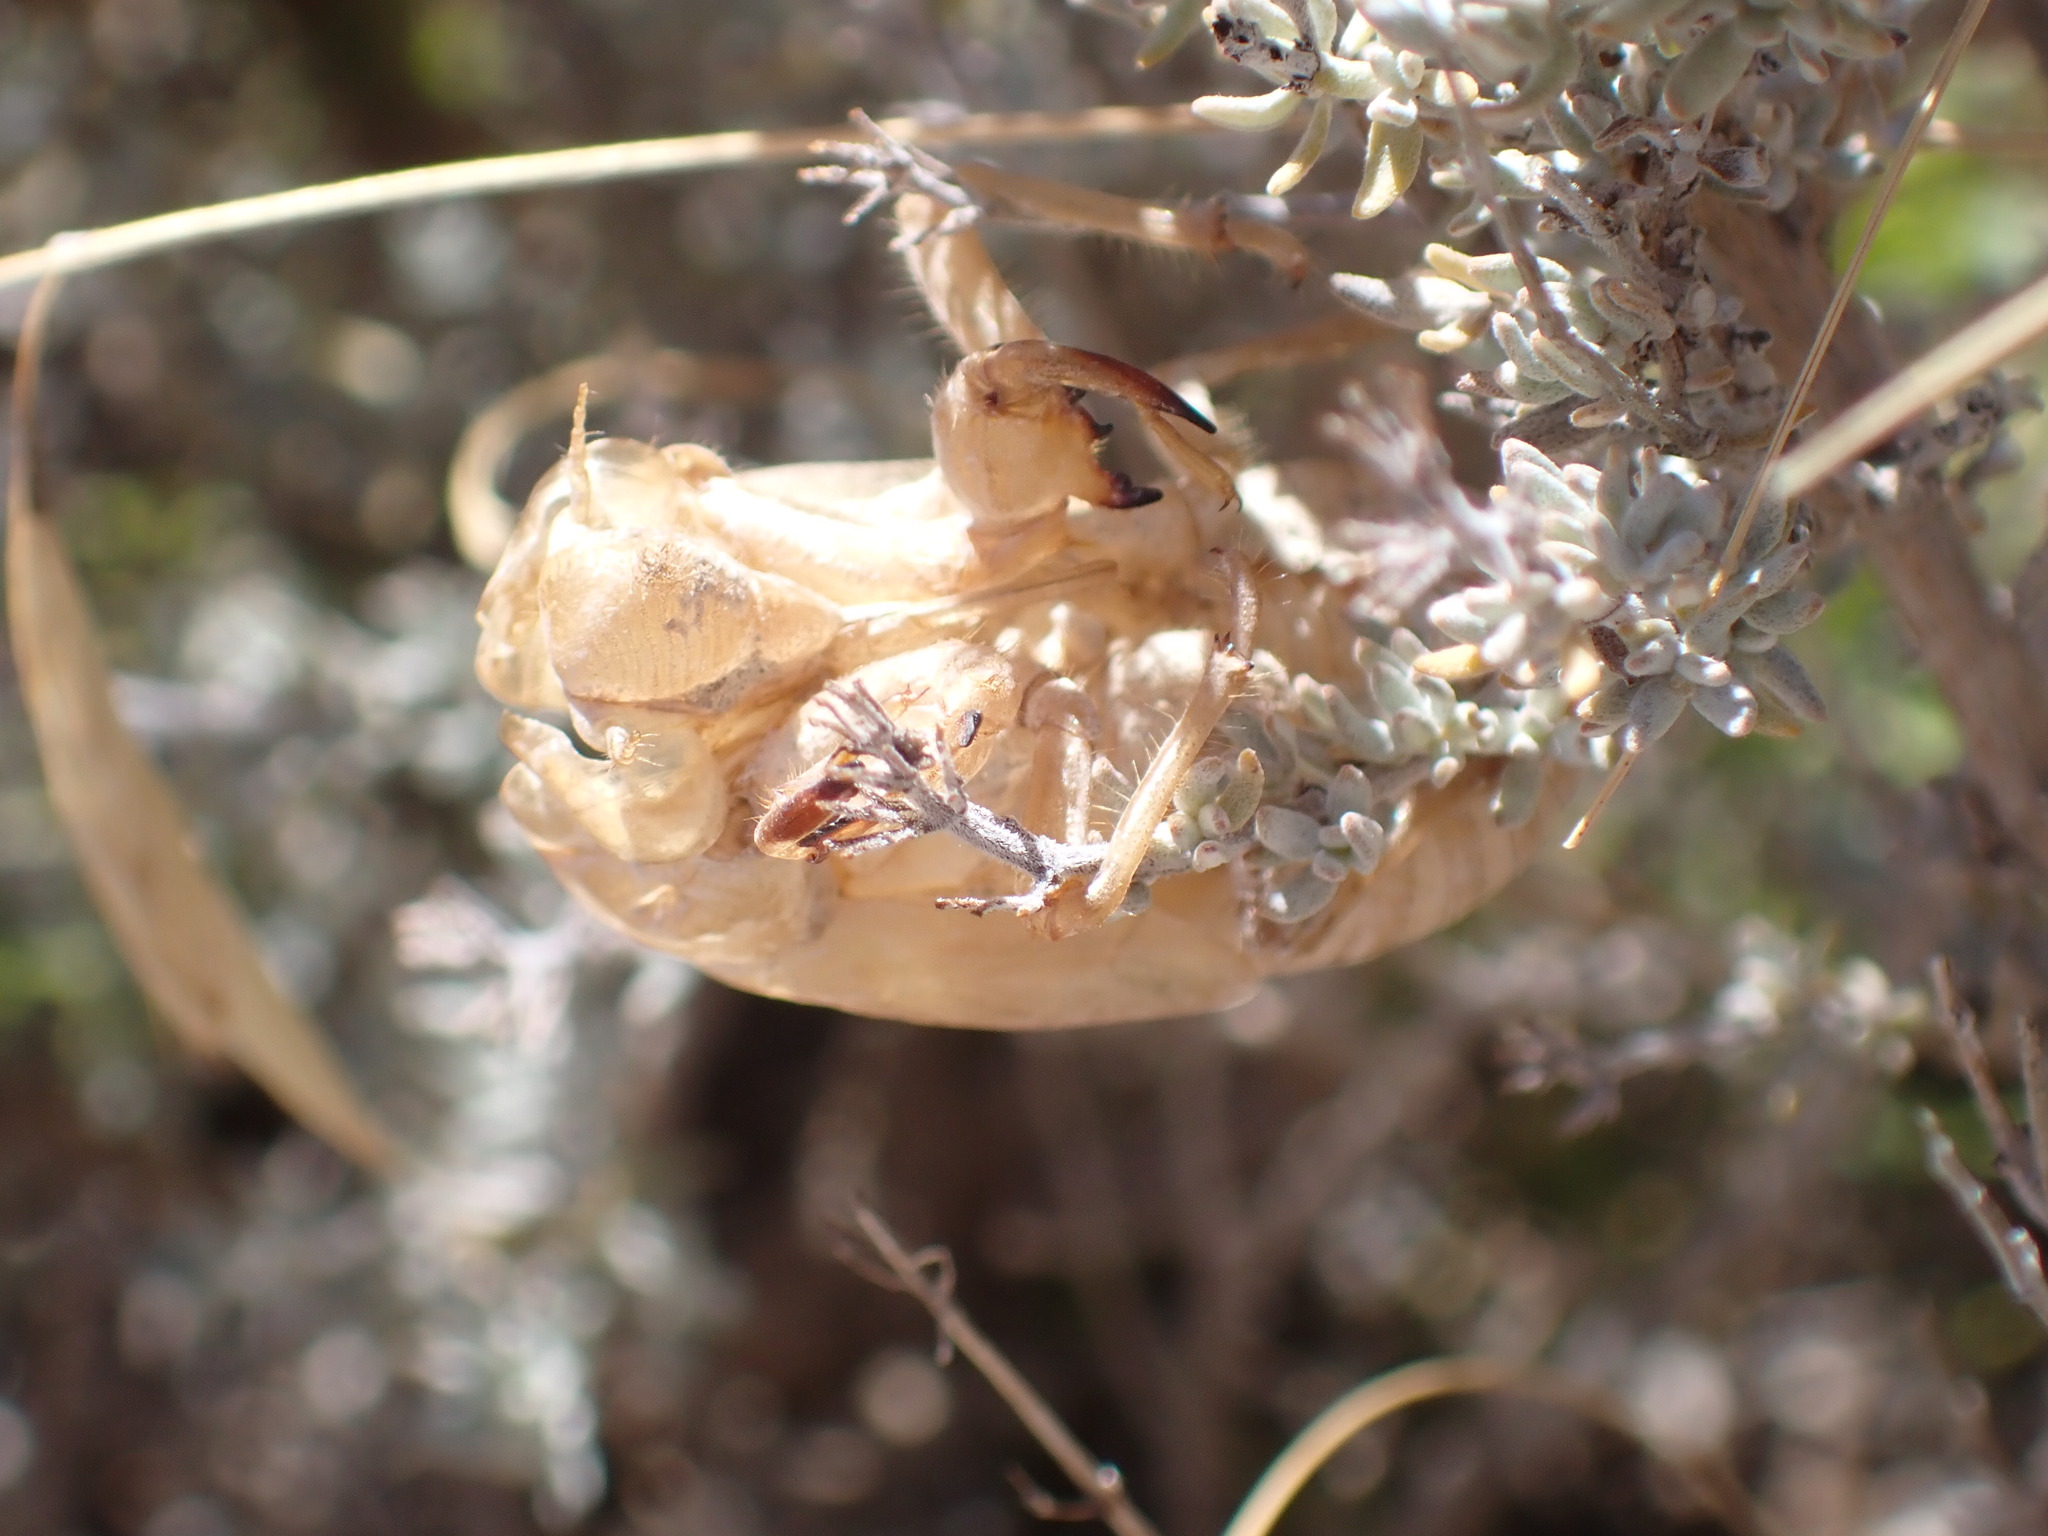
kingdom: Animalia
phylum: Arthropoda
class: Insecta
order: Hemiptera
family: Cicadidae
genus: Lyristes
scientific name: Lyristes plebejus
